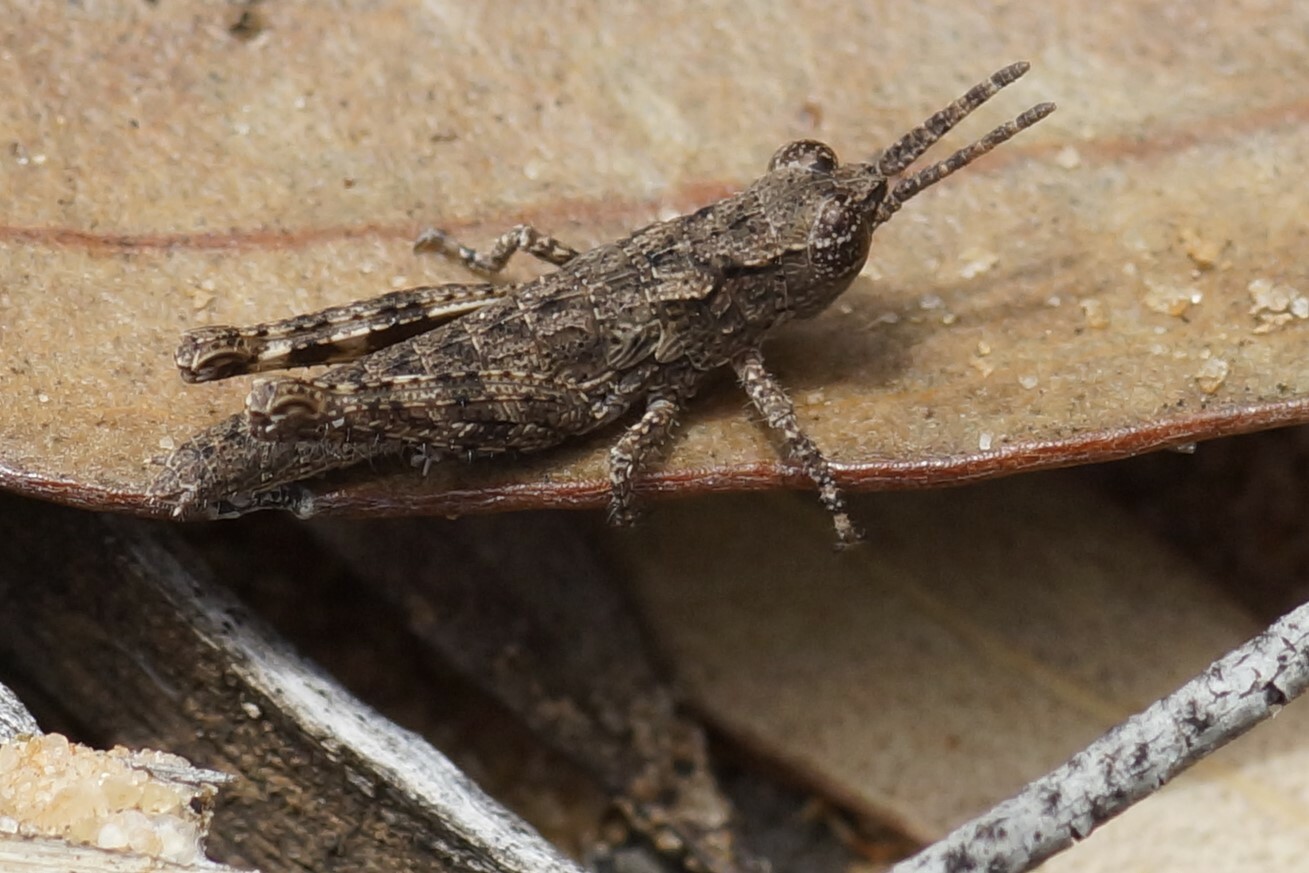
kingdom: Animalia
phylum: Arthropoda
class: Insecta
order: Orthoptera
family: Acrididae
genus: Coryphistes
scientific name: Coryphistes ruricola
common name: Bark-mimicking grasshopper
